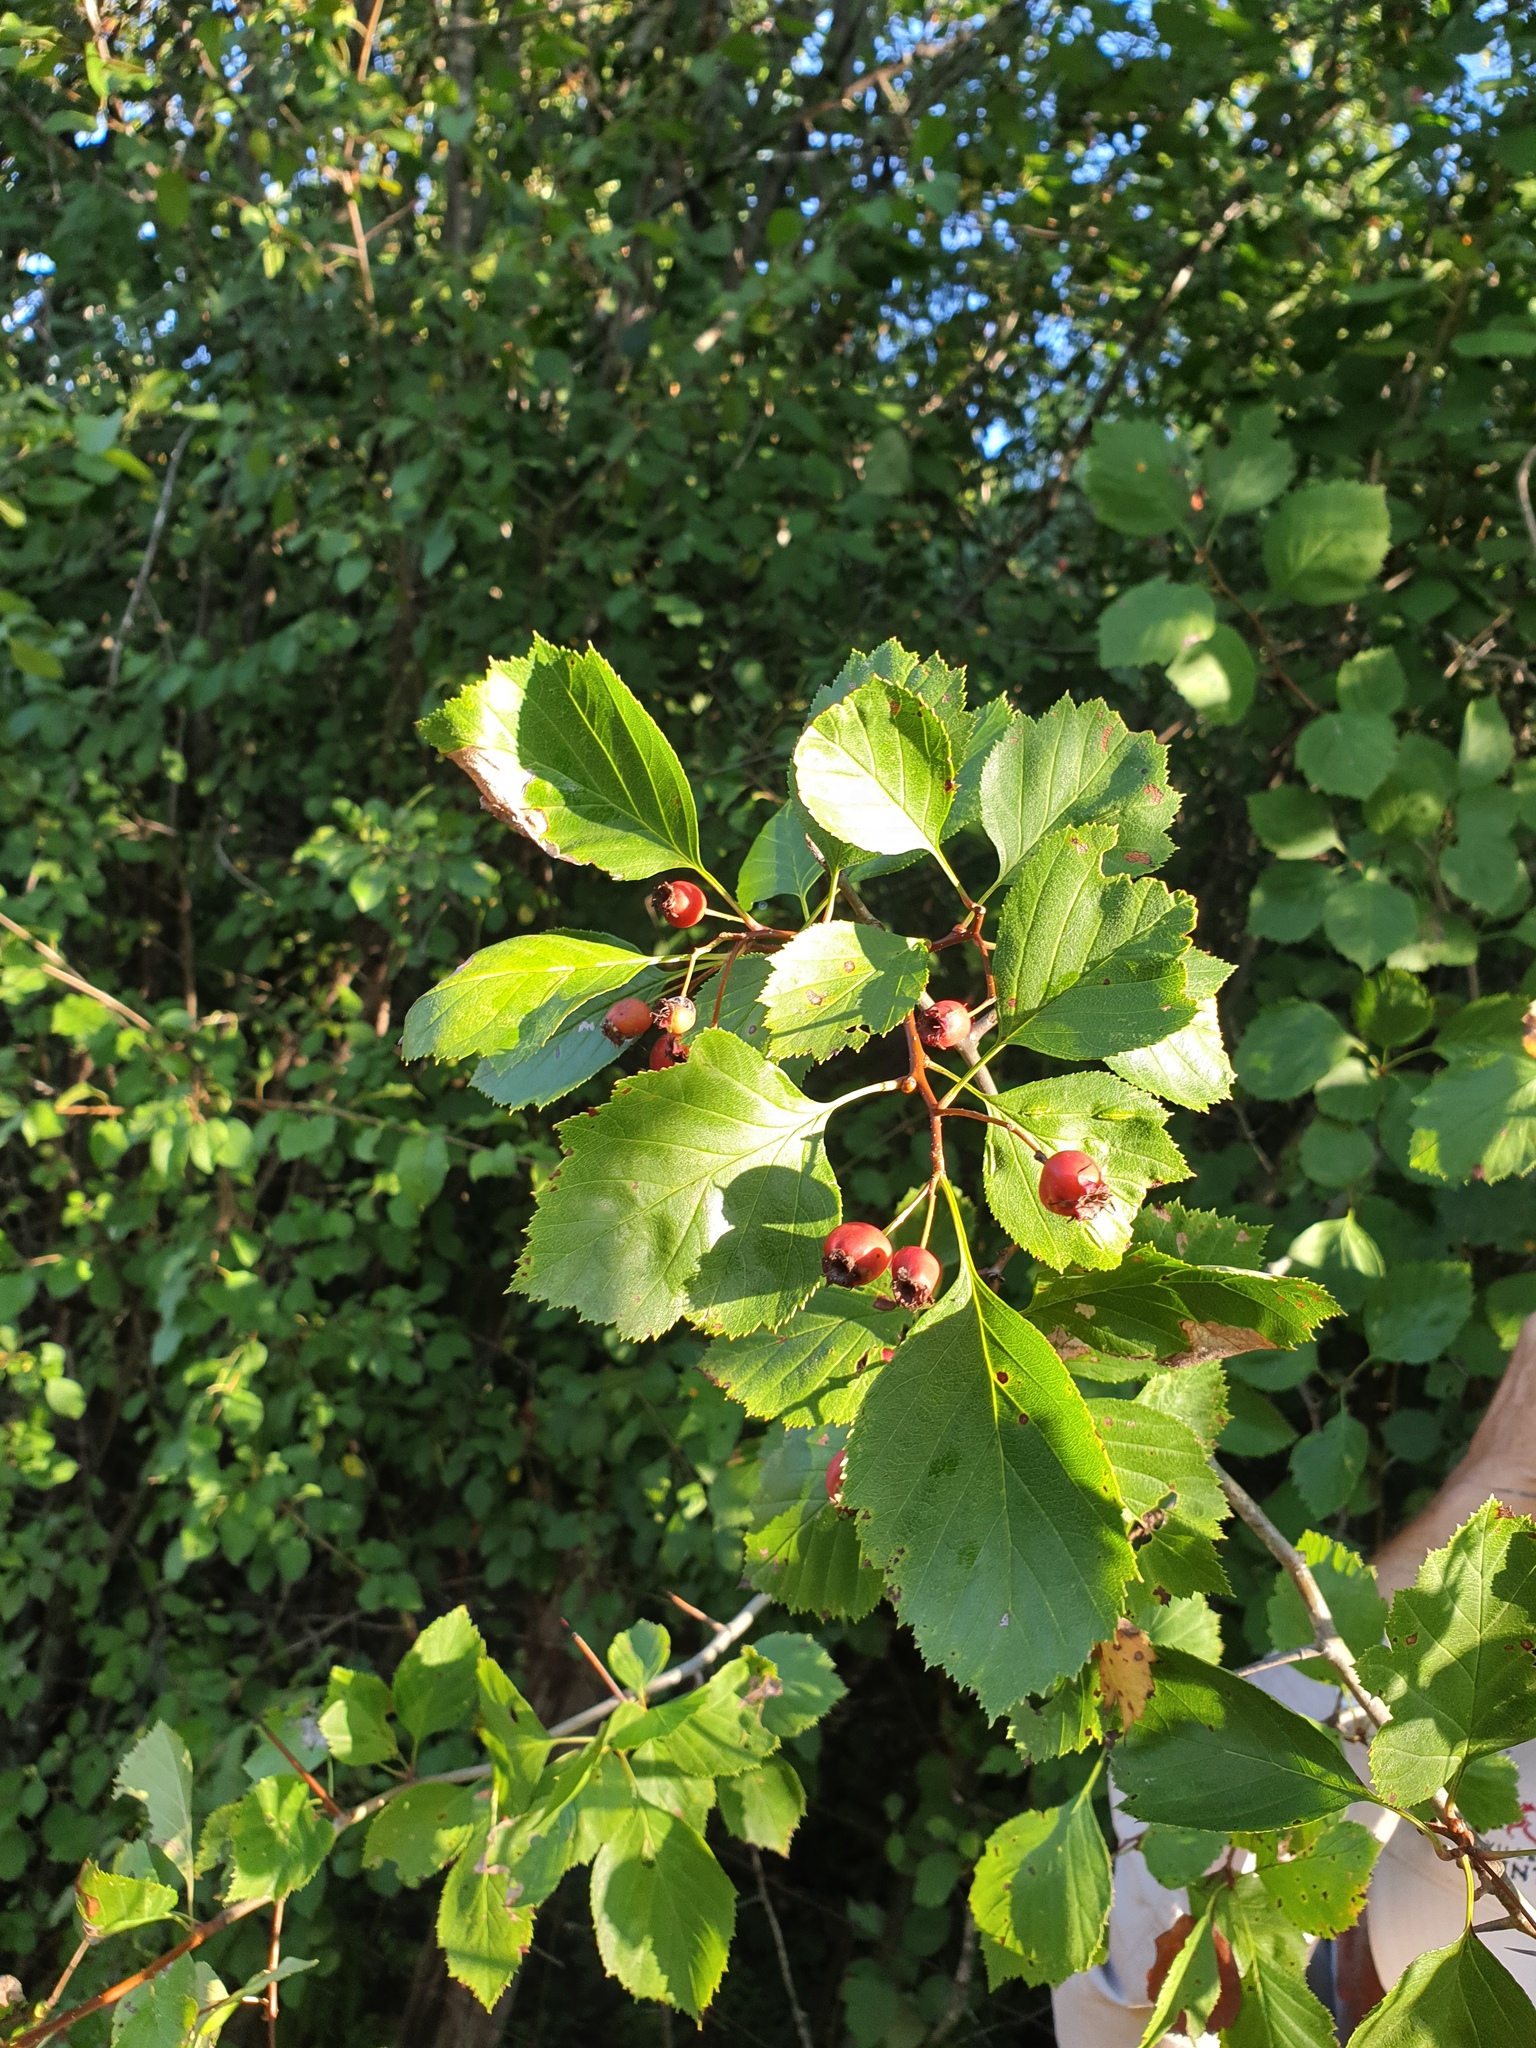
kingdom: Plantae
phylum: Tracheophyta
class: Magnoliopsida
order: Rosales
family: Rosaceae
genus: Crataegus
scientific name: Crataegus scabrida
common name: Rough hawthorn
